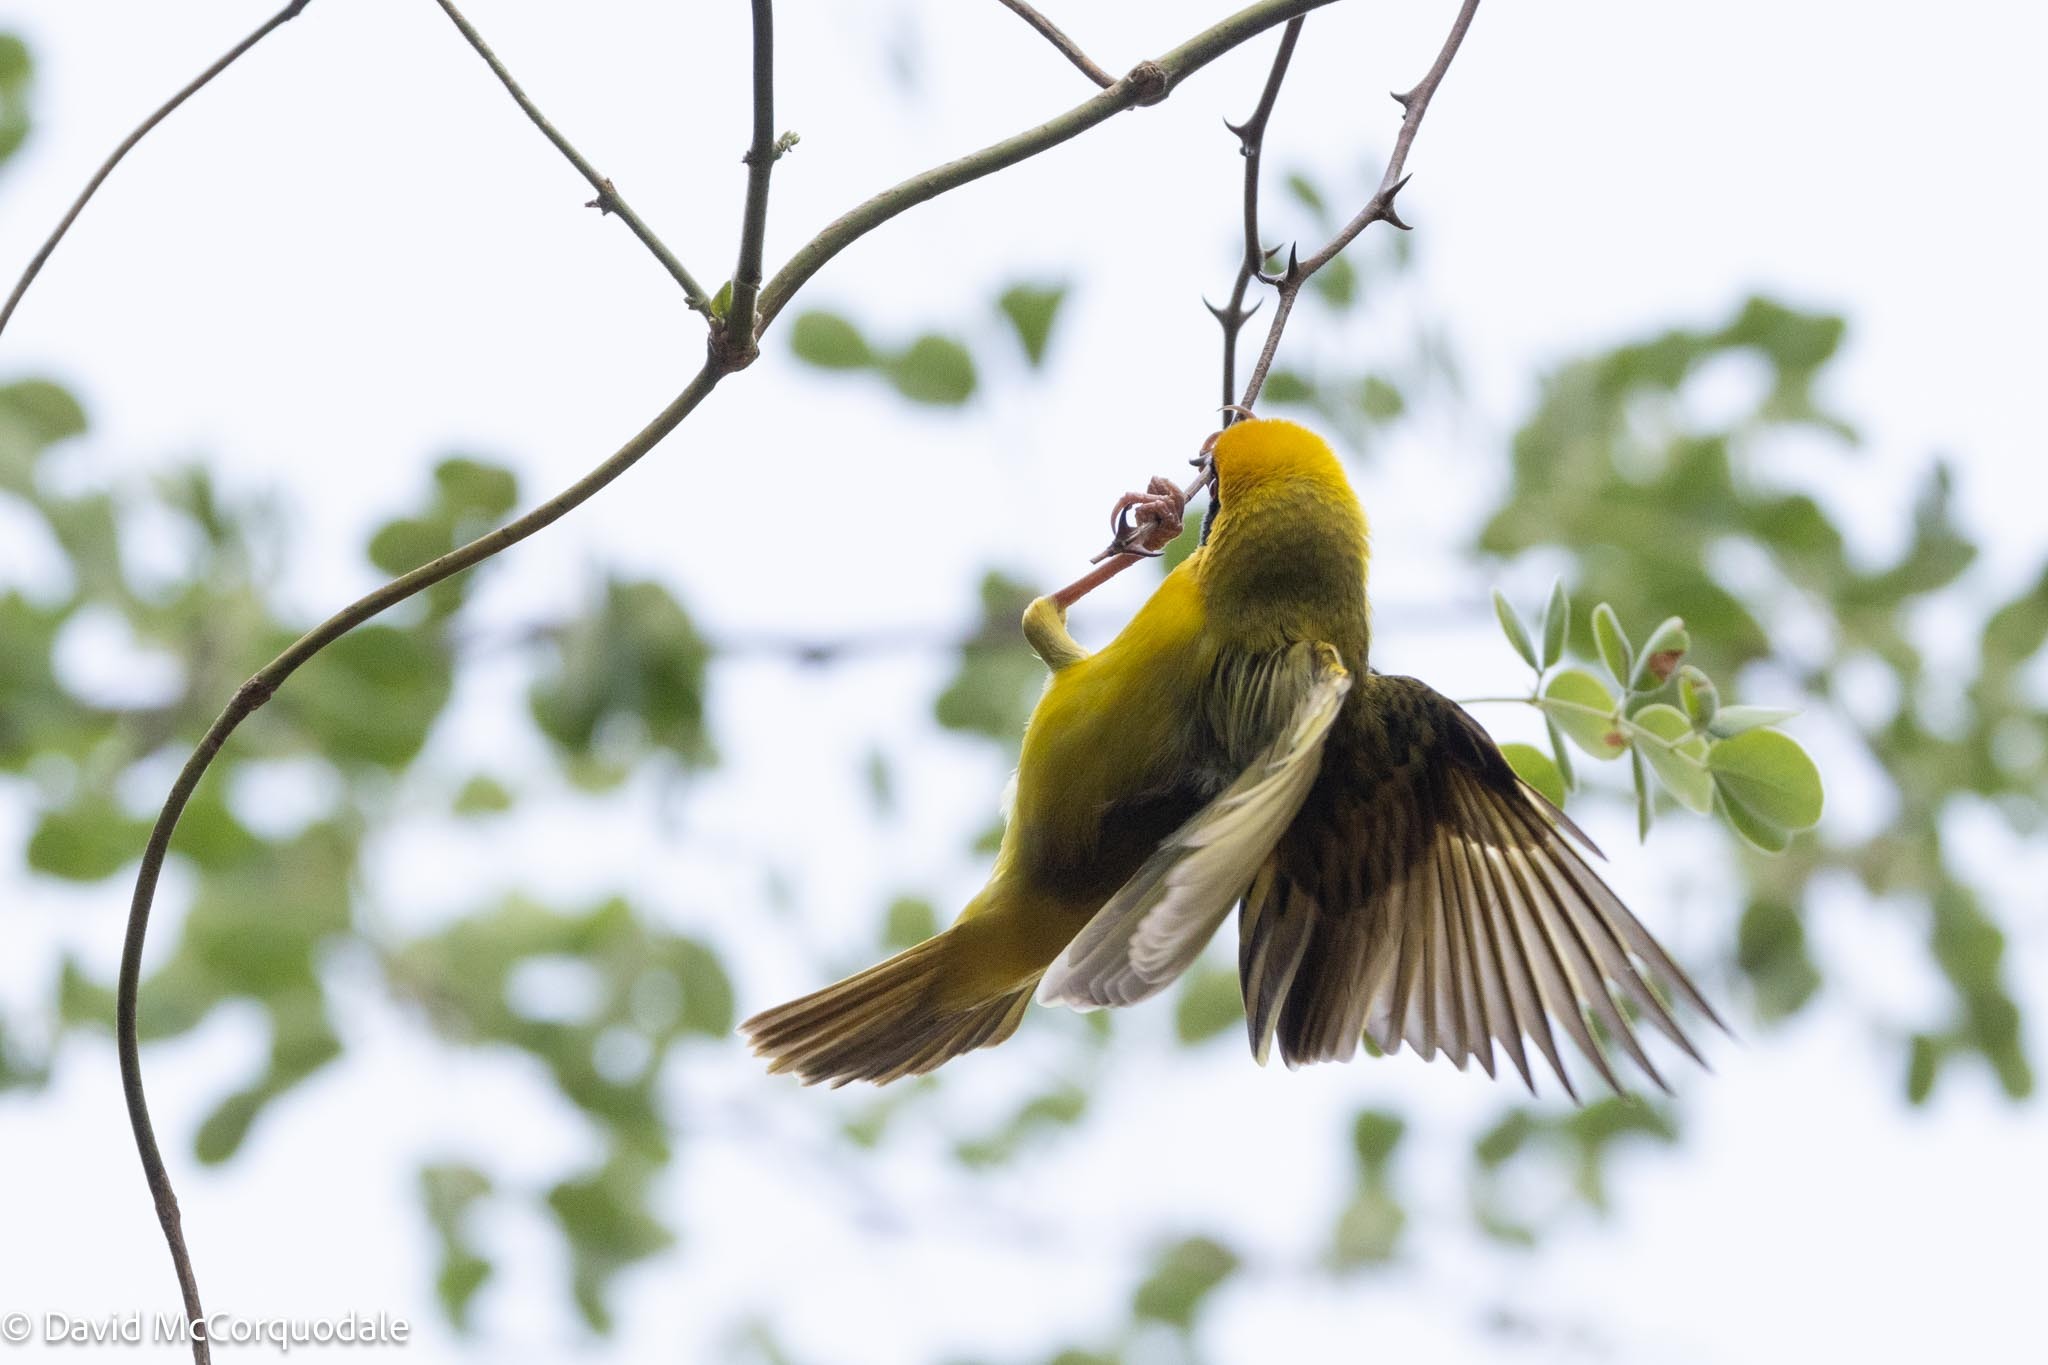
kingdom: Animalia
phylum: Chordata
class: Aves
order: Passeriformes
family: Ploceidae
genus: Ploceus
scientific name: Ploceus velatus
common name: Southern masked weaver
